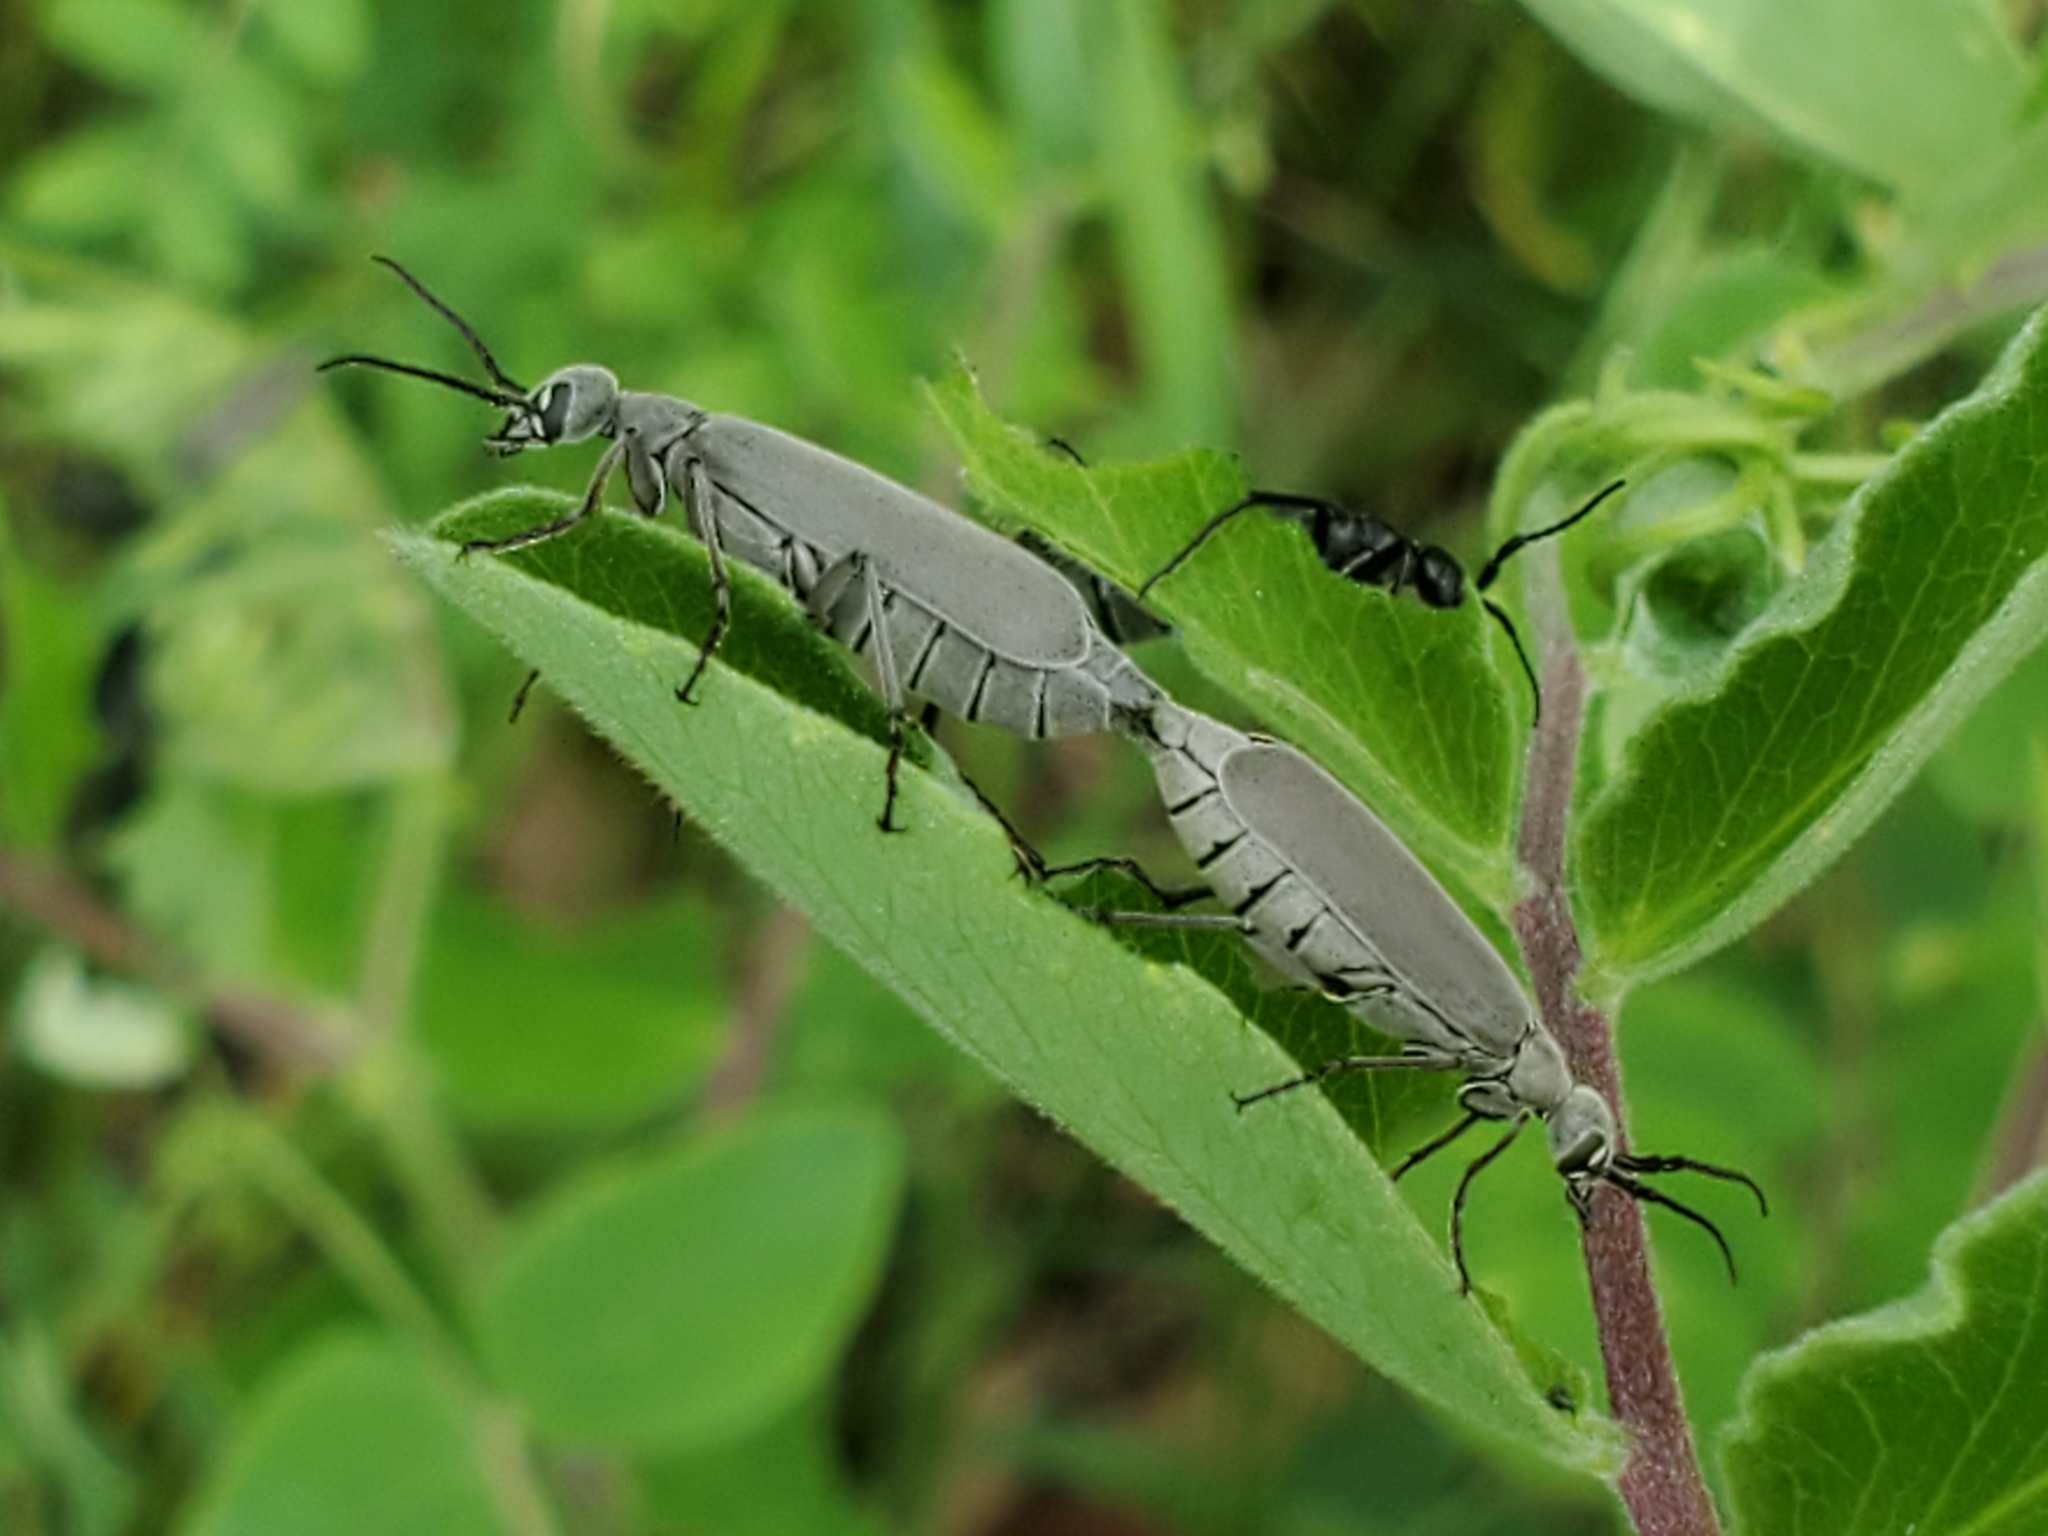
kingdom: Animalia
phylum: Arthropoda
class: Insecta
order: Coleoptera
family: Meloidae
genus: Epicauta
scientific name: Epicauta fabricii
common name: Ashgray blister beetle
